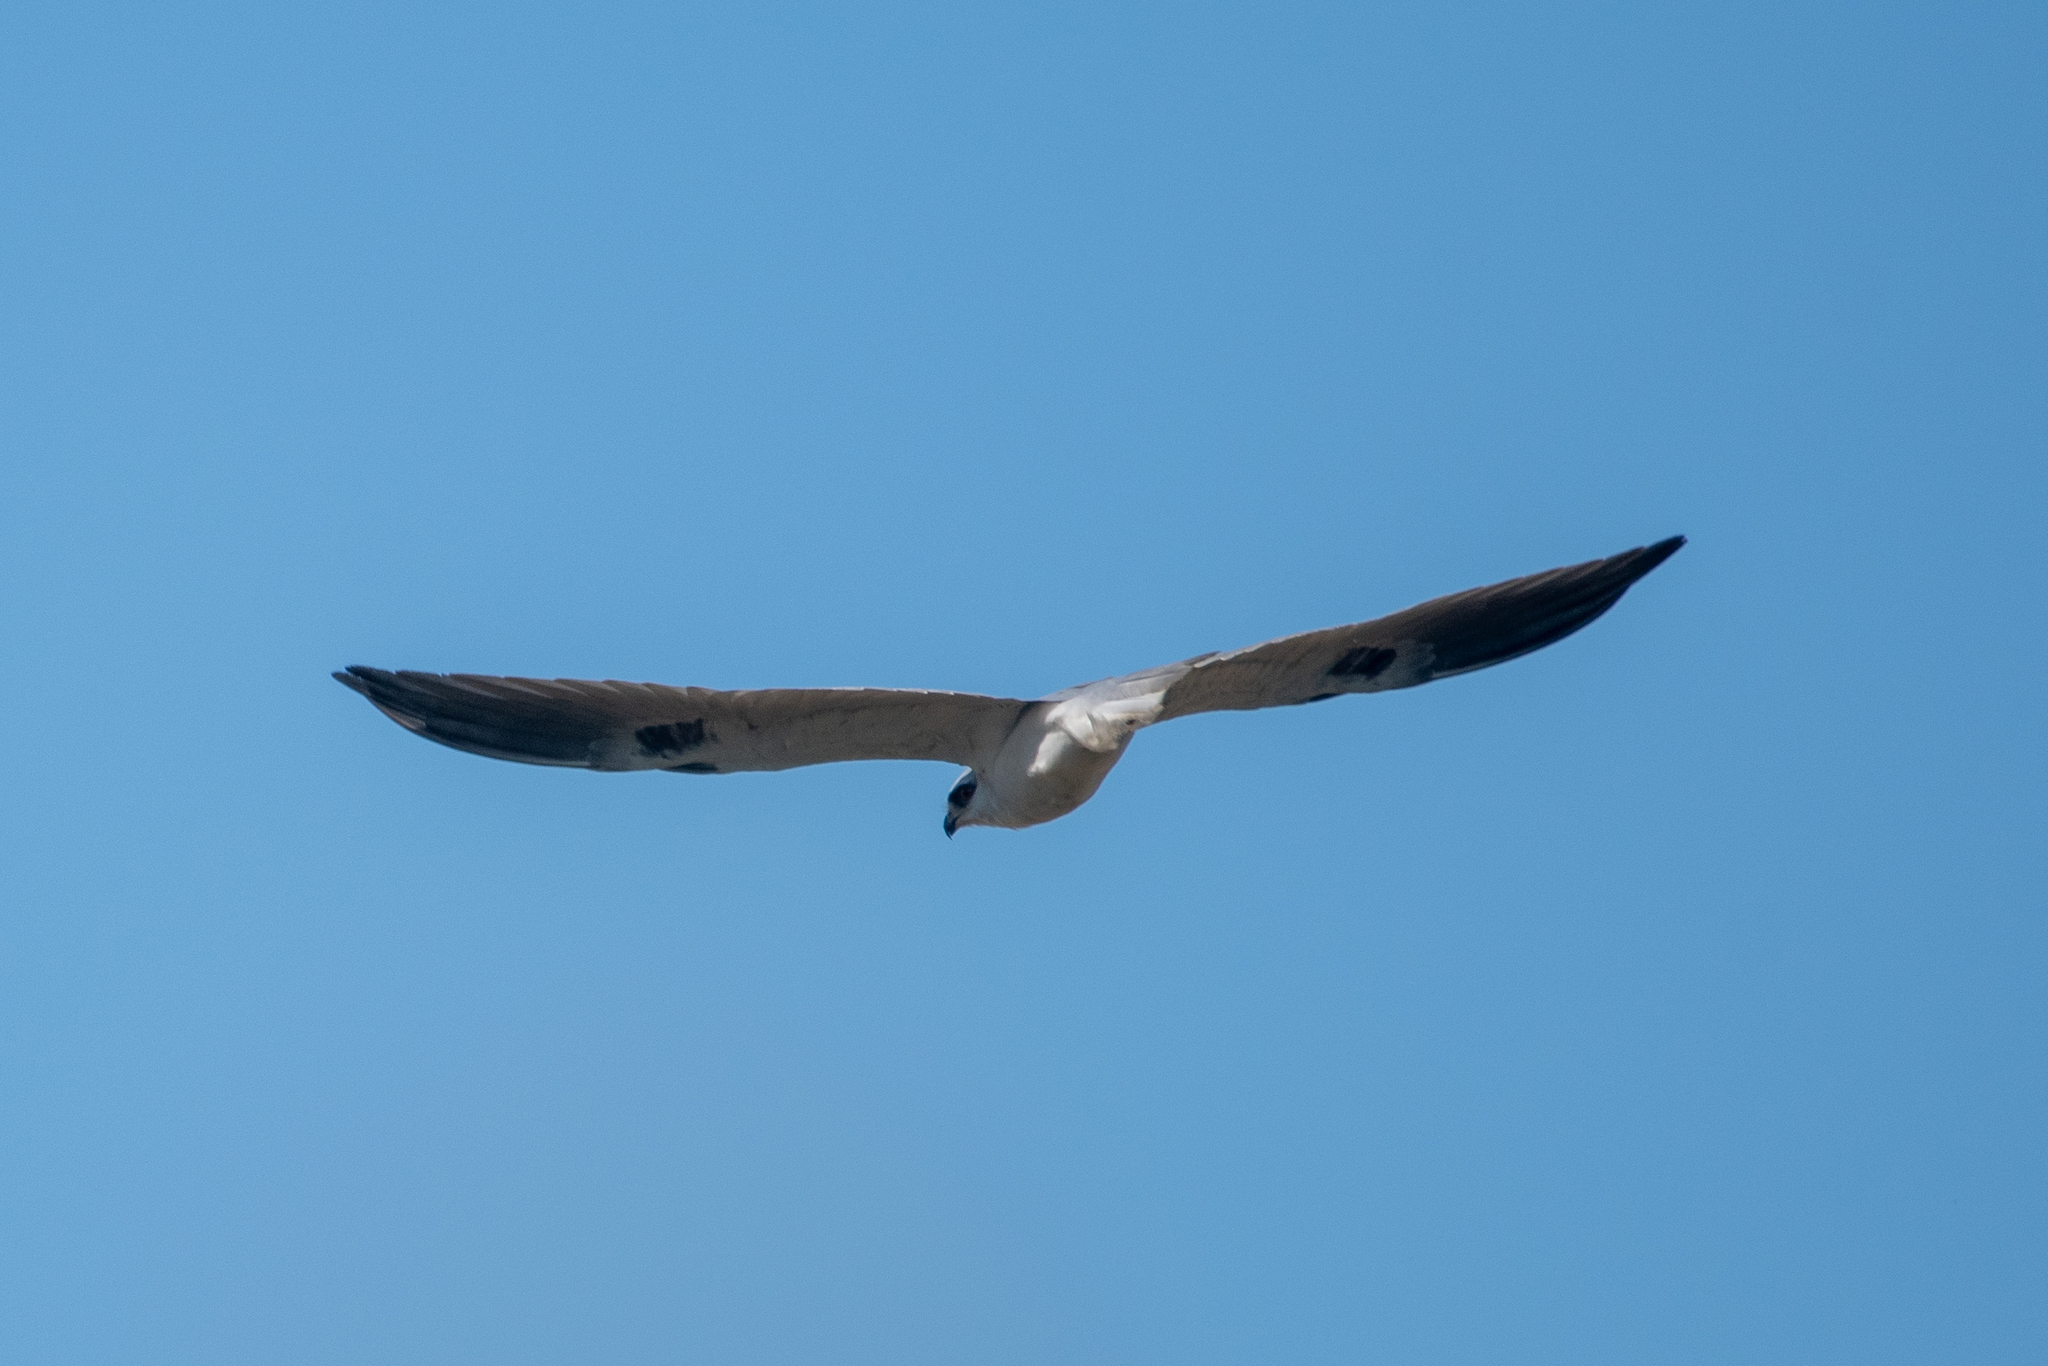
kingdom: Animalia
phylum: Chordata
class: Aves
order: Accipitriformes
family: Accipitridae
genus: Elanus
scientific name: Elanus leucurus
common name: White-tailed kite
